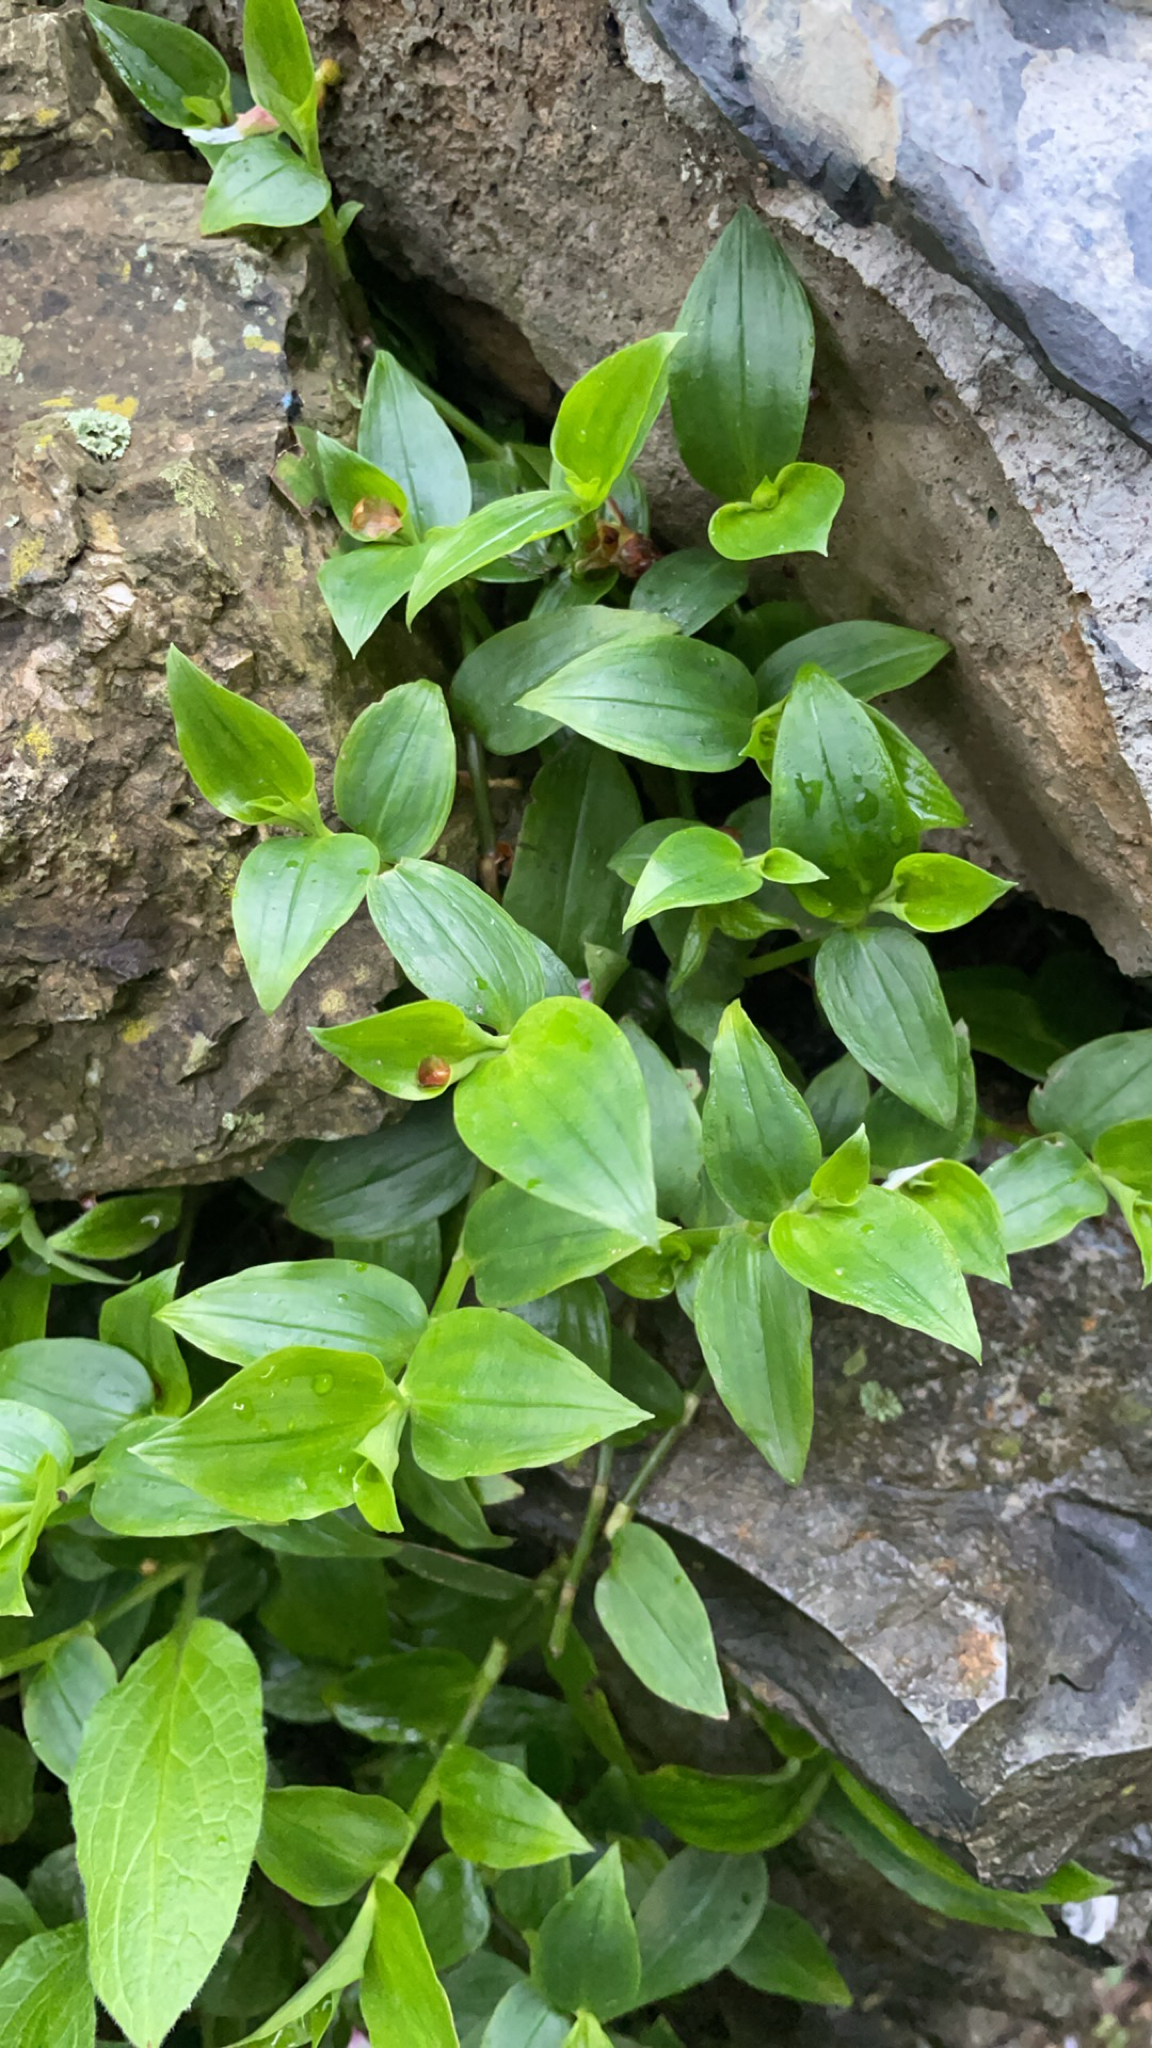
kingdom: Plantae
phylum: Tracheophyta
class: Liliopsida
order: Commelinales
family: Commelinaceae
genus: Tradescantia
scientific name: Tradescantia fluminensis
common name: Wandering-jew
